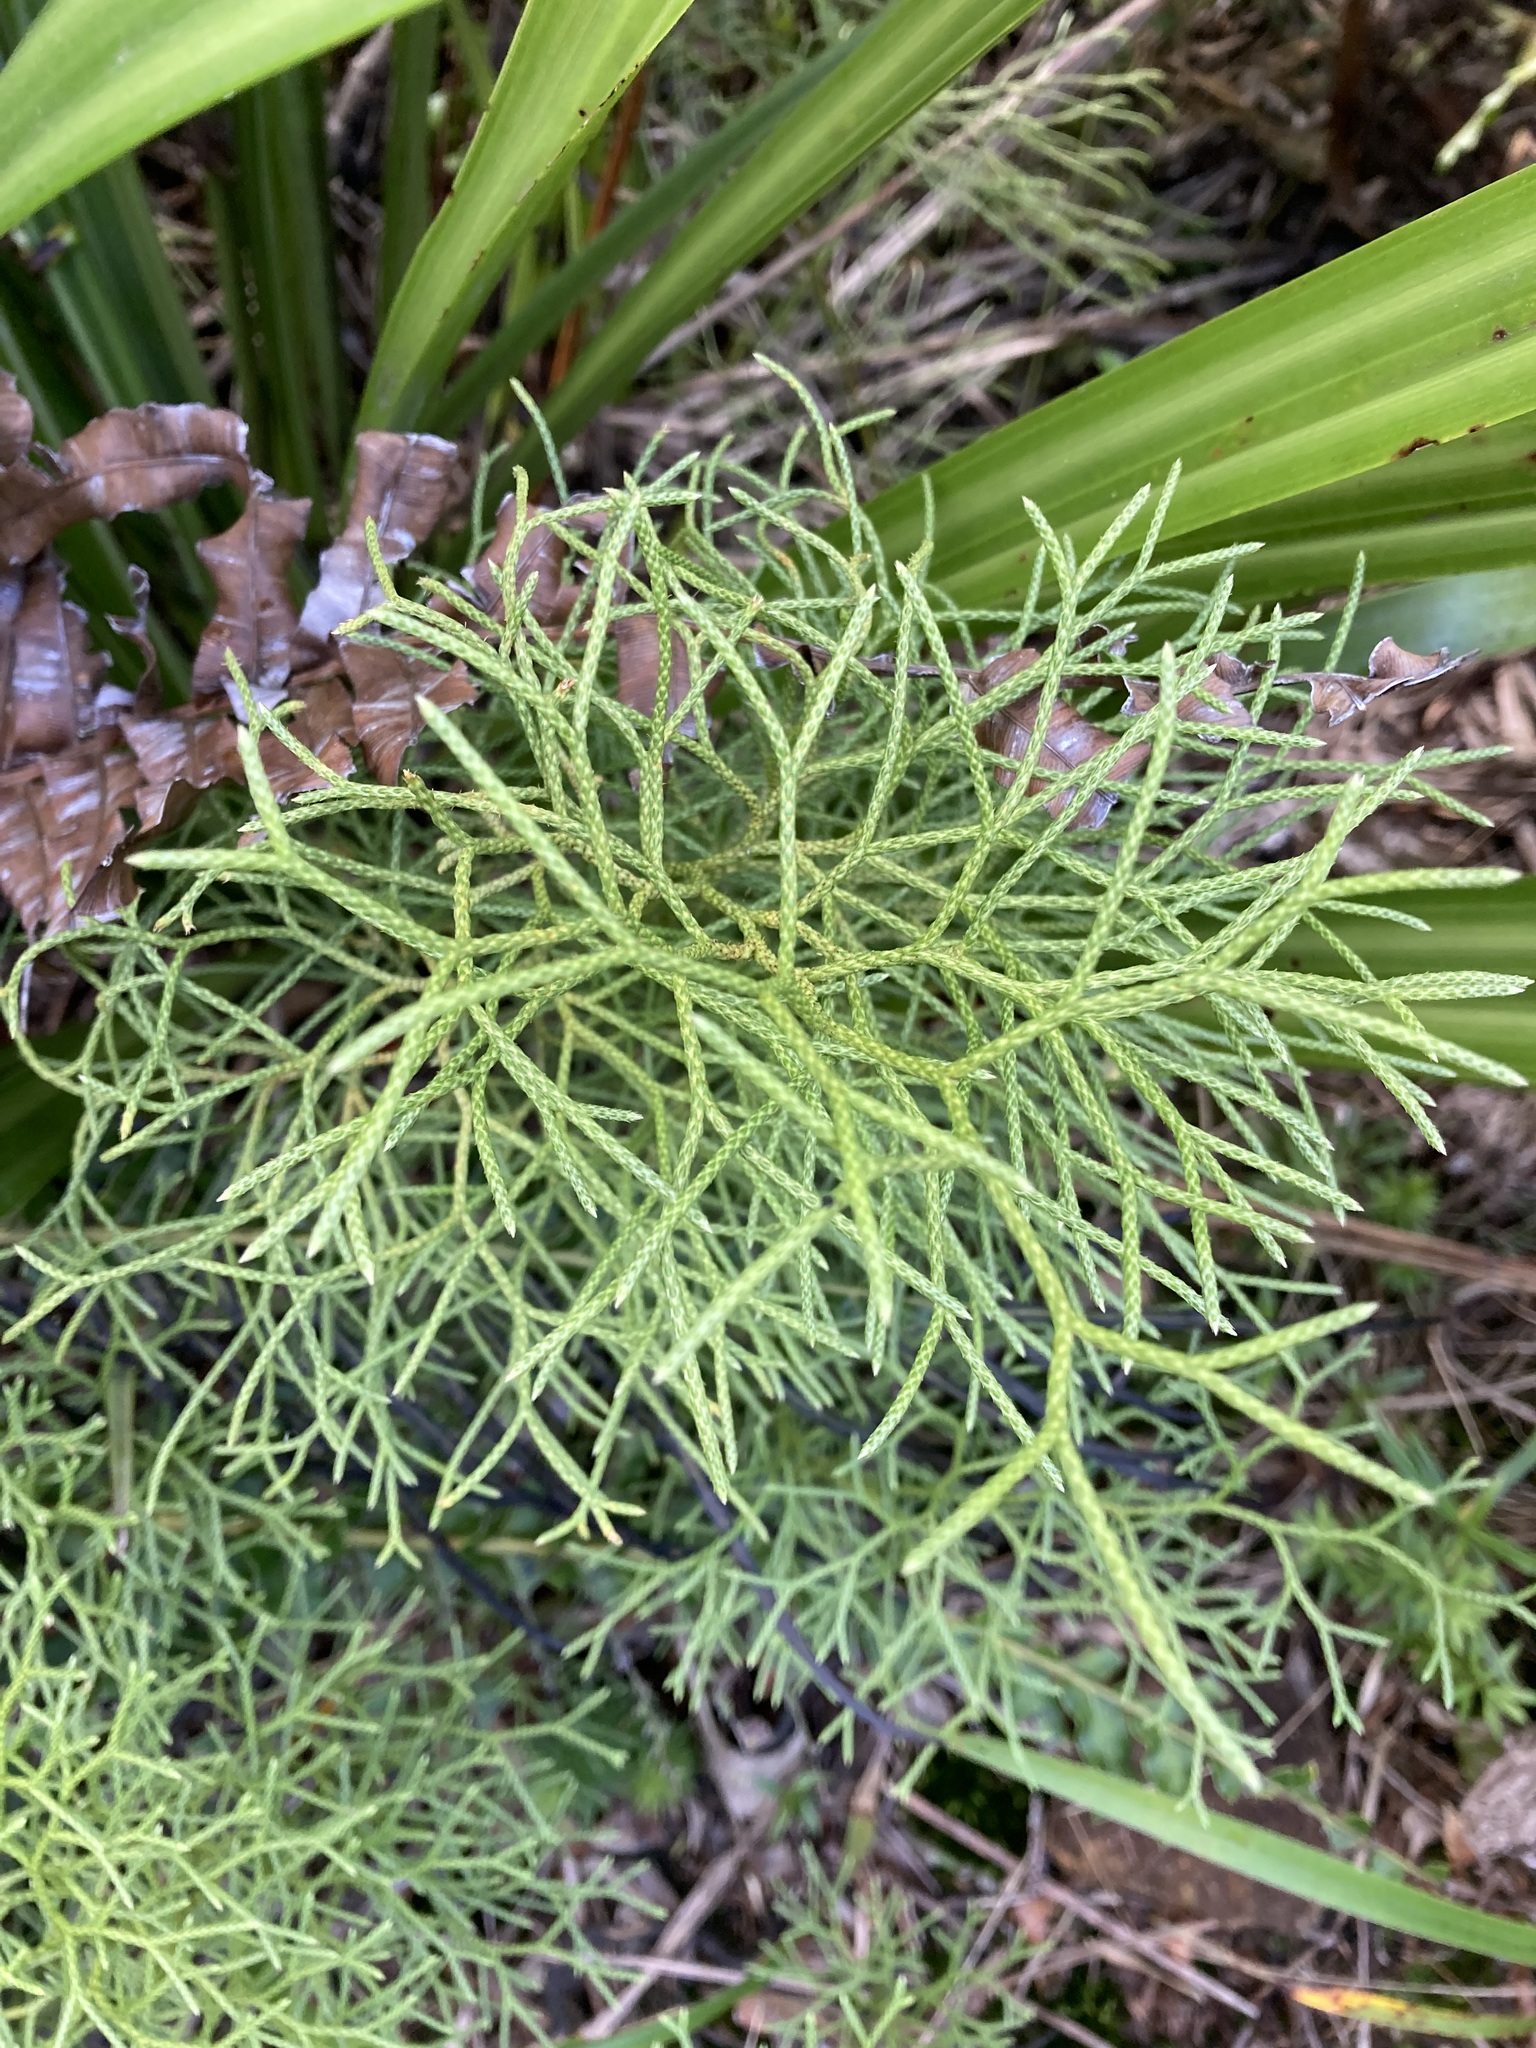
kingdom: Plantae
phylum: Tracheophyta
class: Lycopodiopsida
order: Lycopodiales
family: Lycopodiaceae
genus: Pseudolycopodium
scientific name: Pseudolycopodium densum
